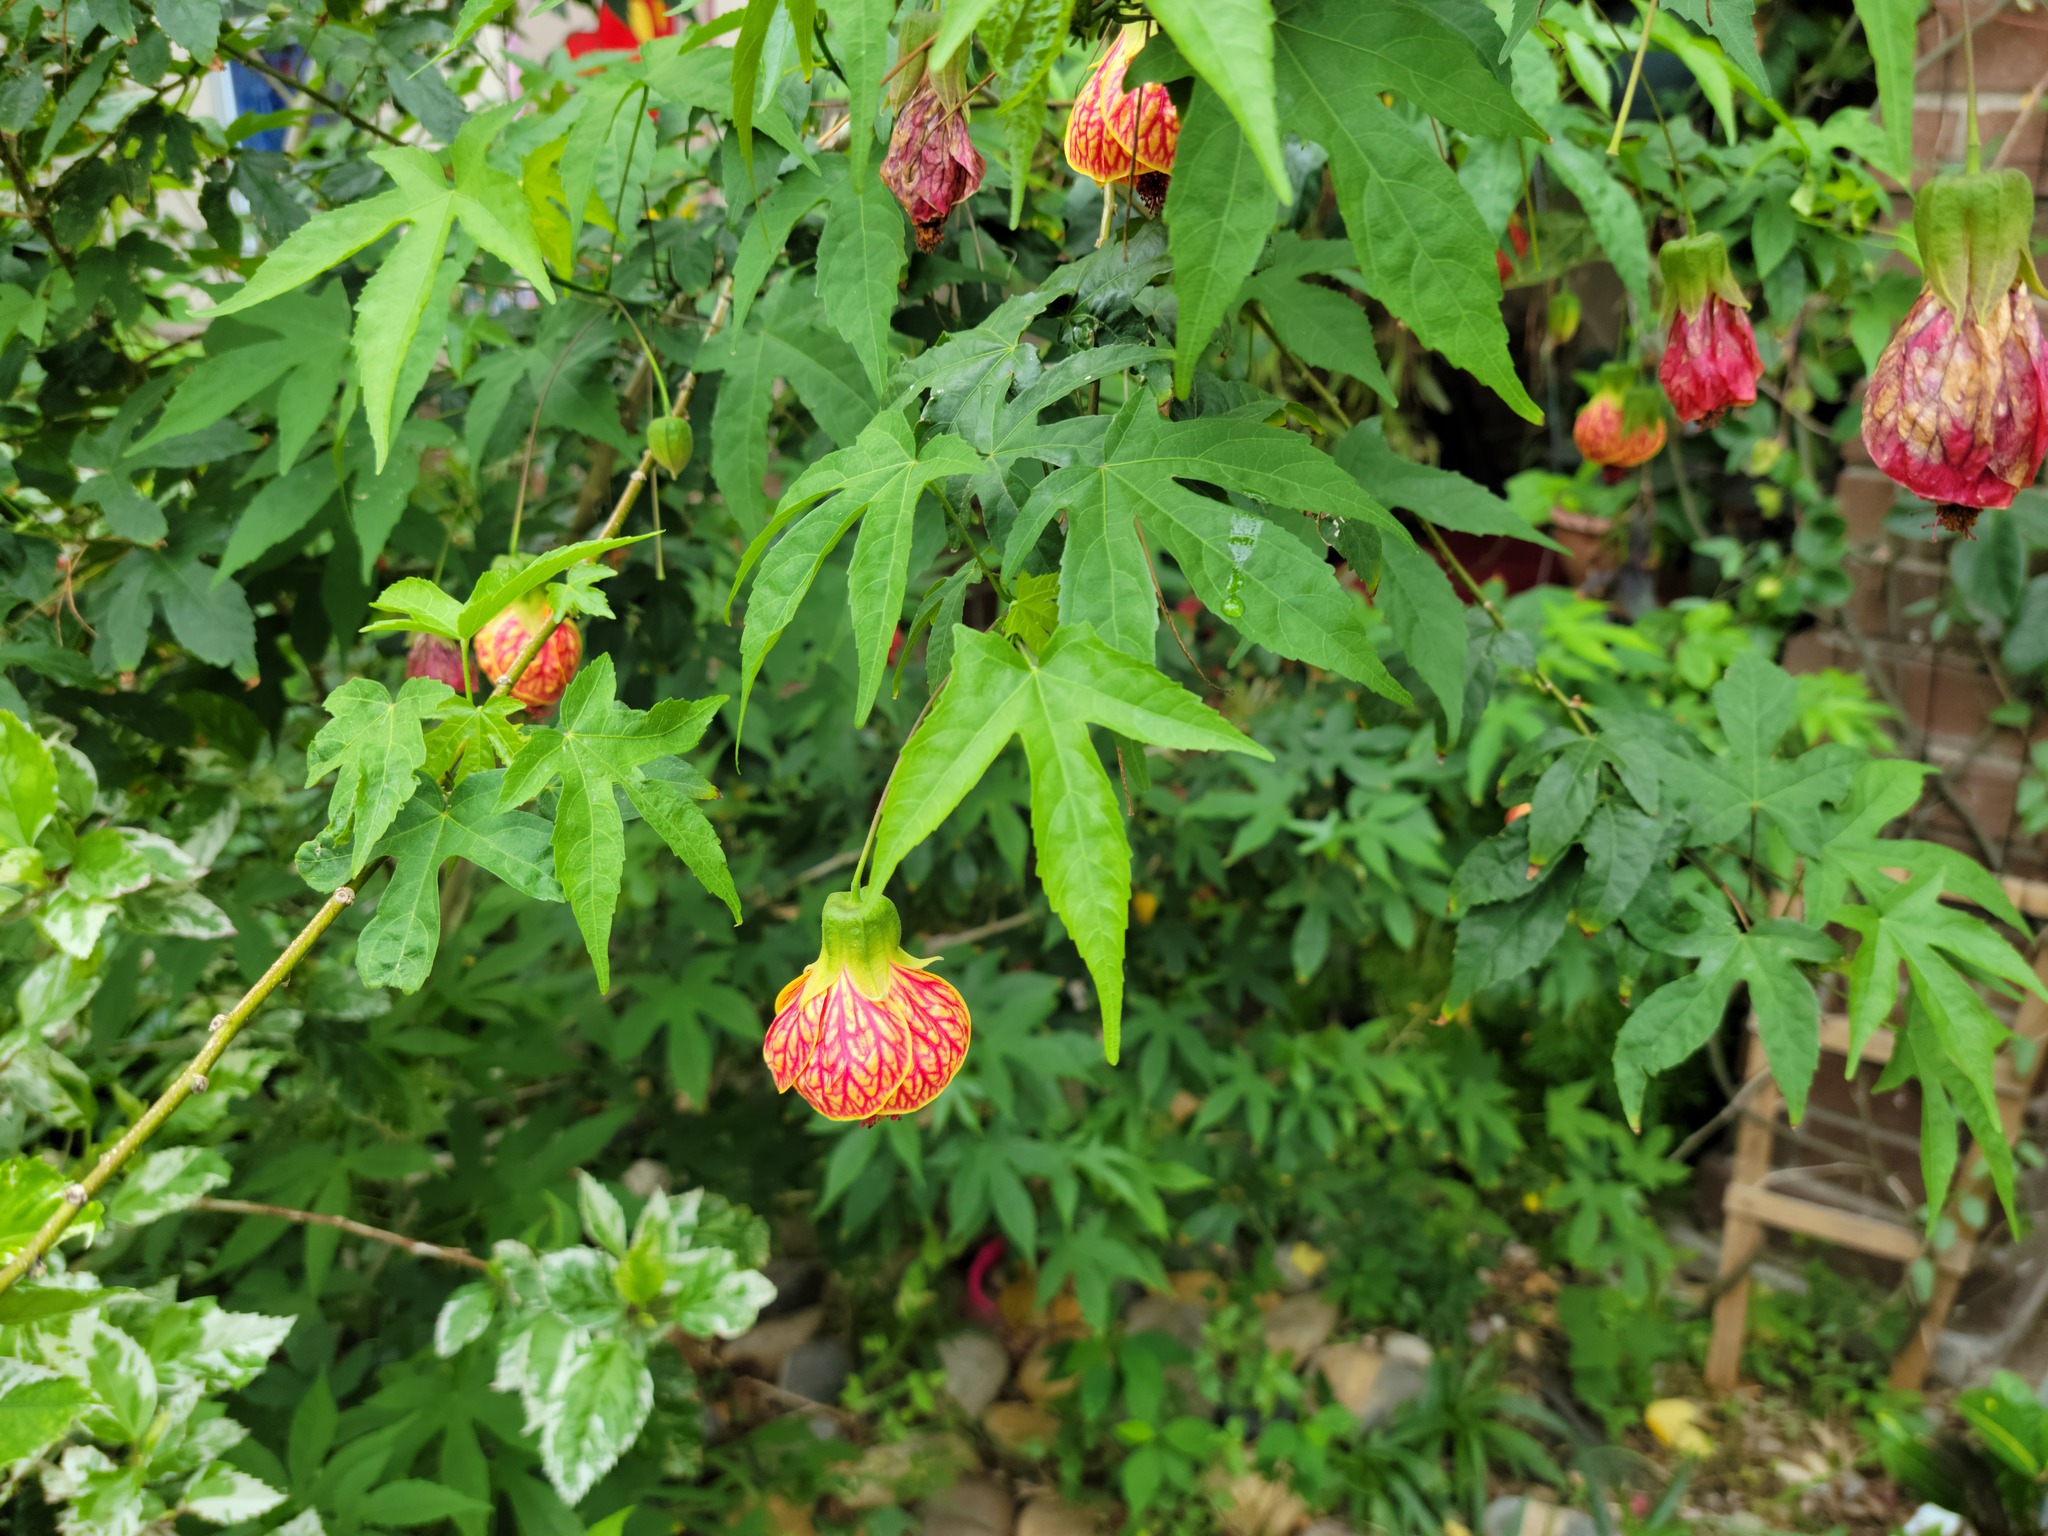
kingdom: Plantae
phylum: Tracheophyta
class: Magnoliopsida
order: Malvales
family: Malvaceae
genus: Callianthe
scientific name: Callianthe picta
